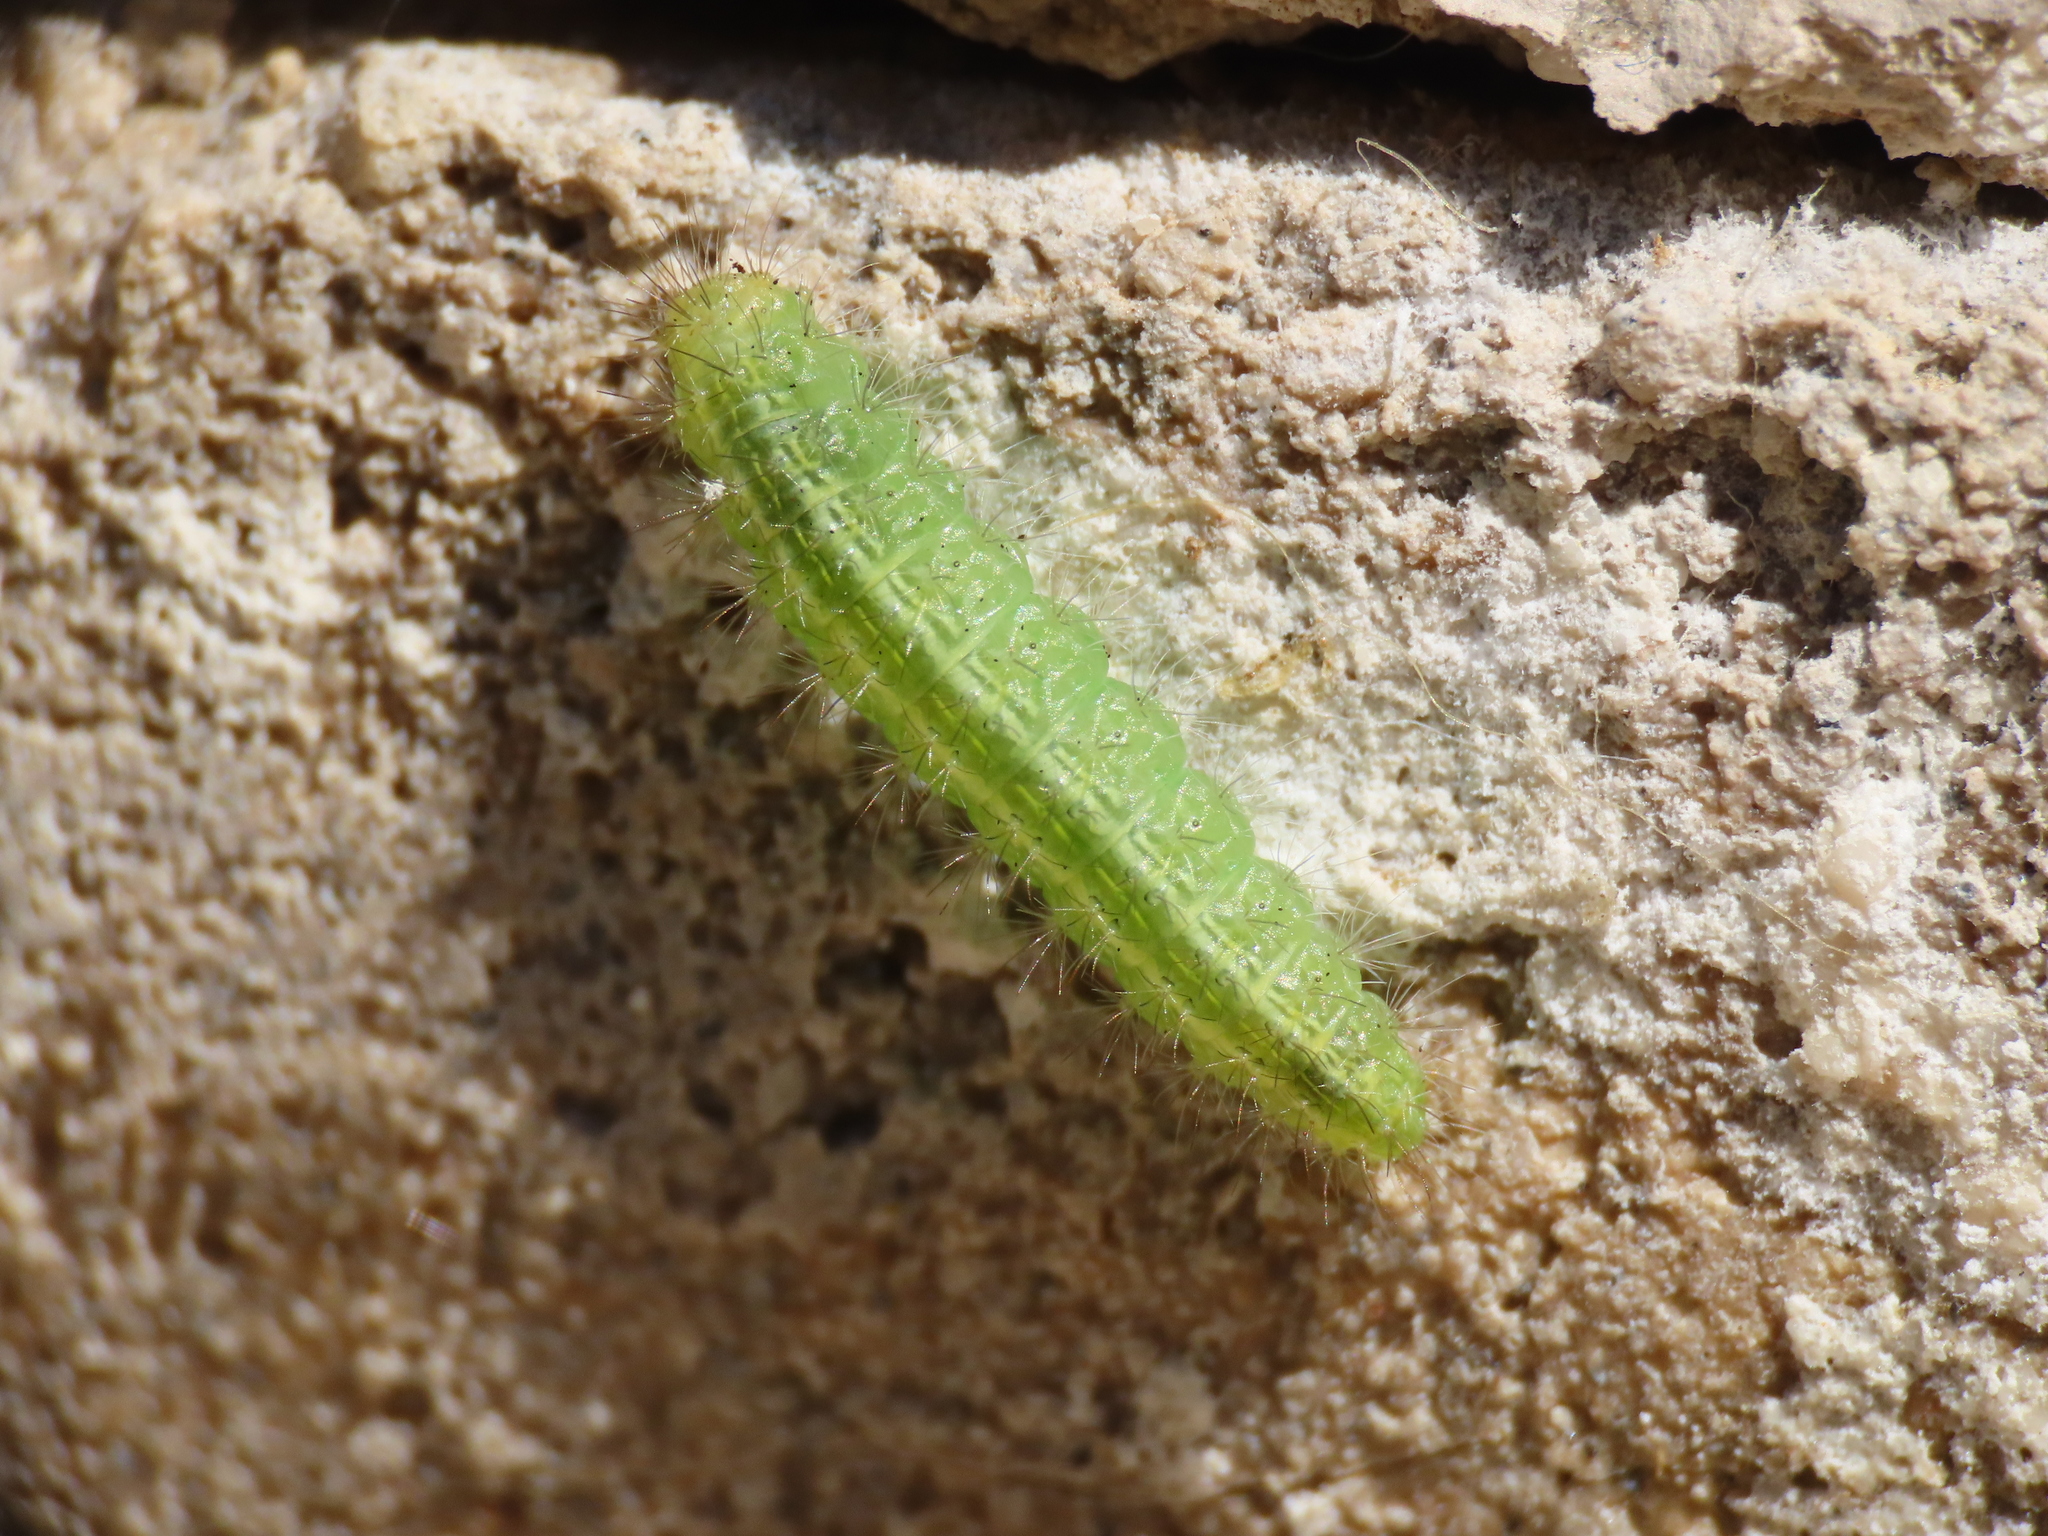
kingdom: Animalia
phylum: Arthropoda
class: Insecta
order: Lepidoptera
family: Pterophoridae
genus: Emmelina
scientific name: Emmelina monodactyla
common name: Common plume
